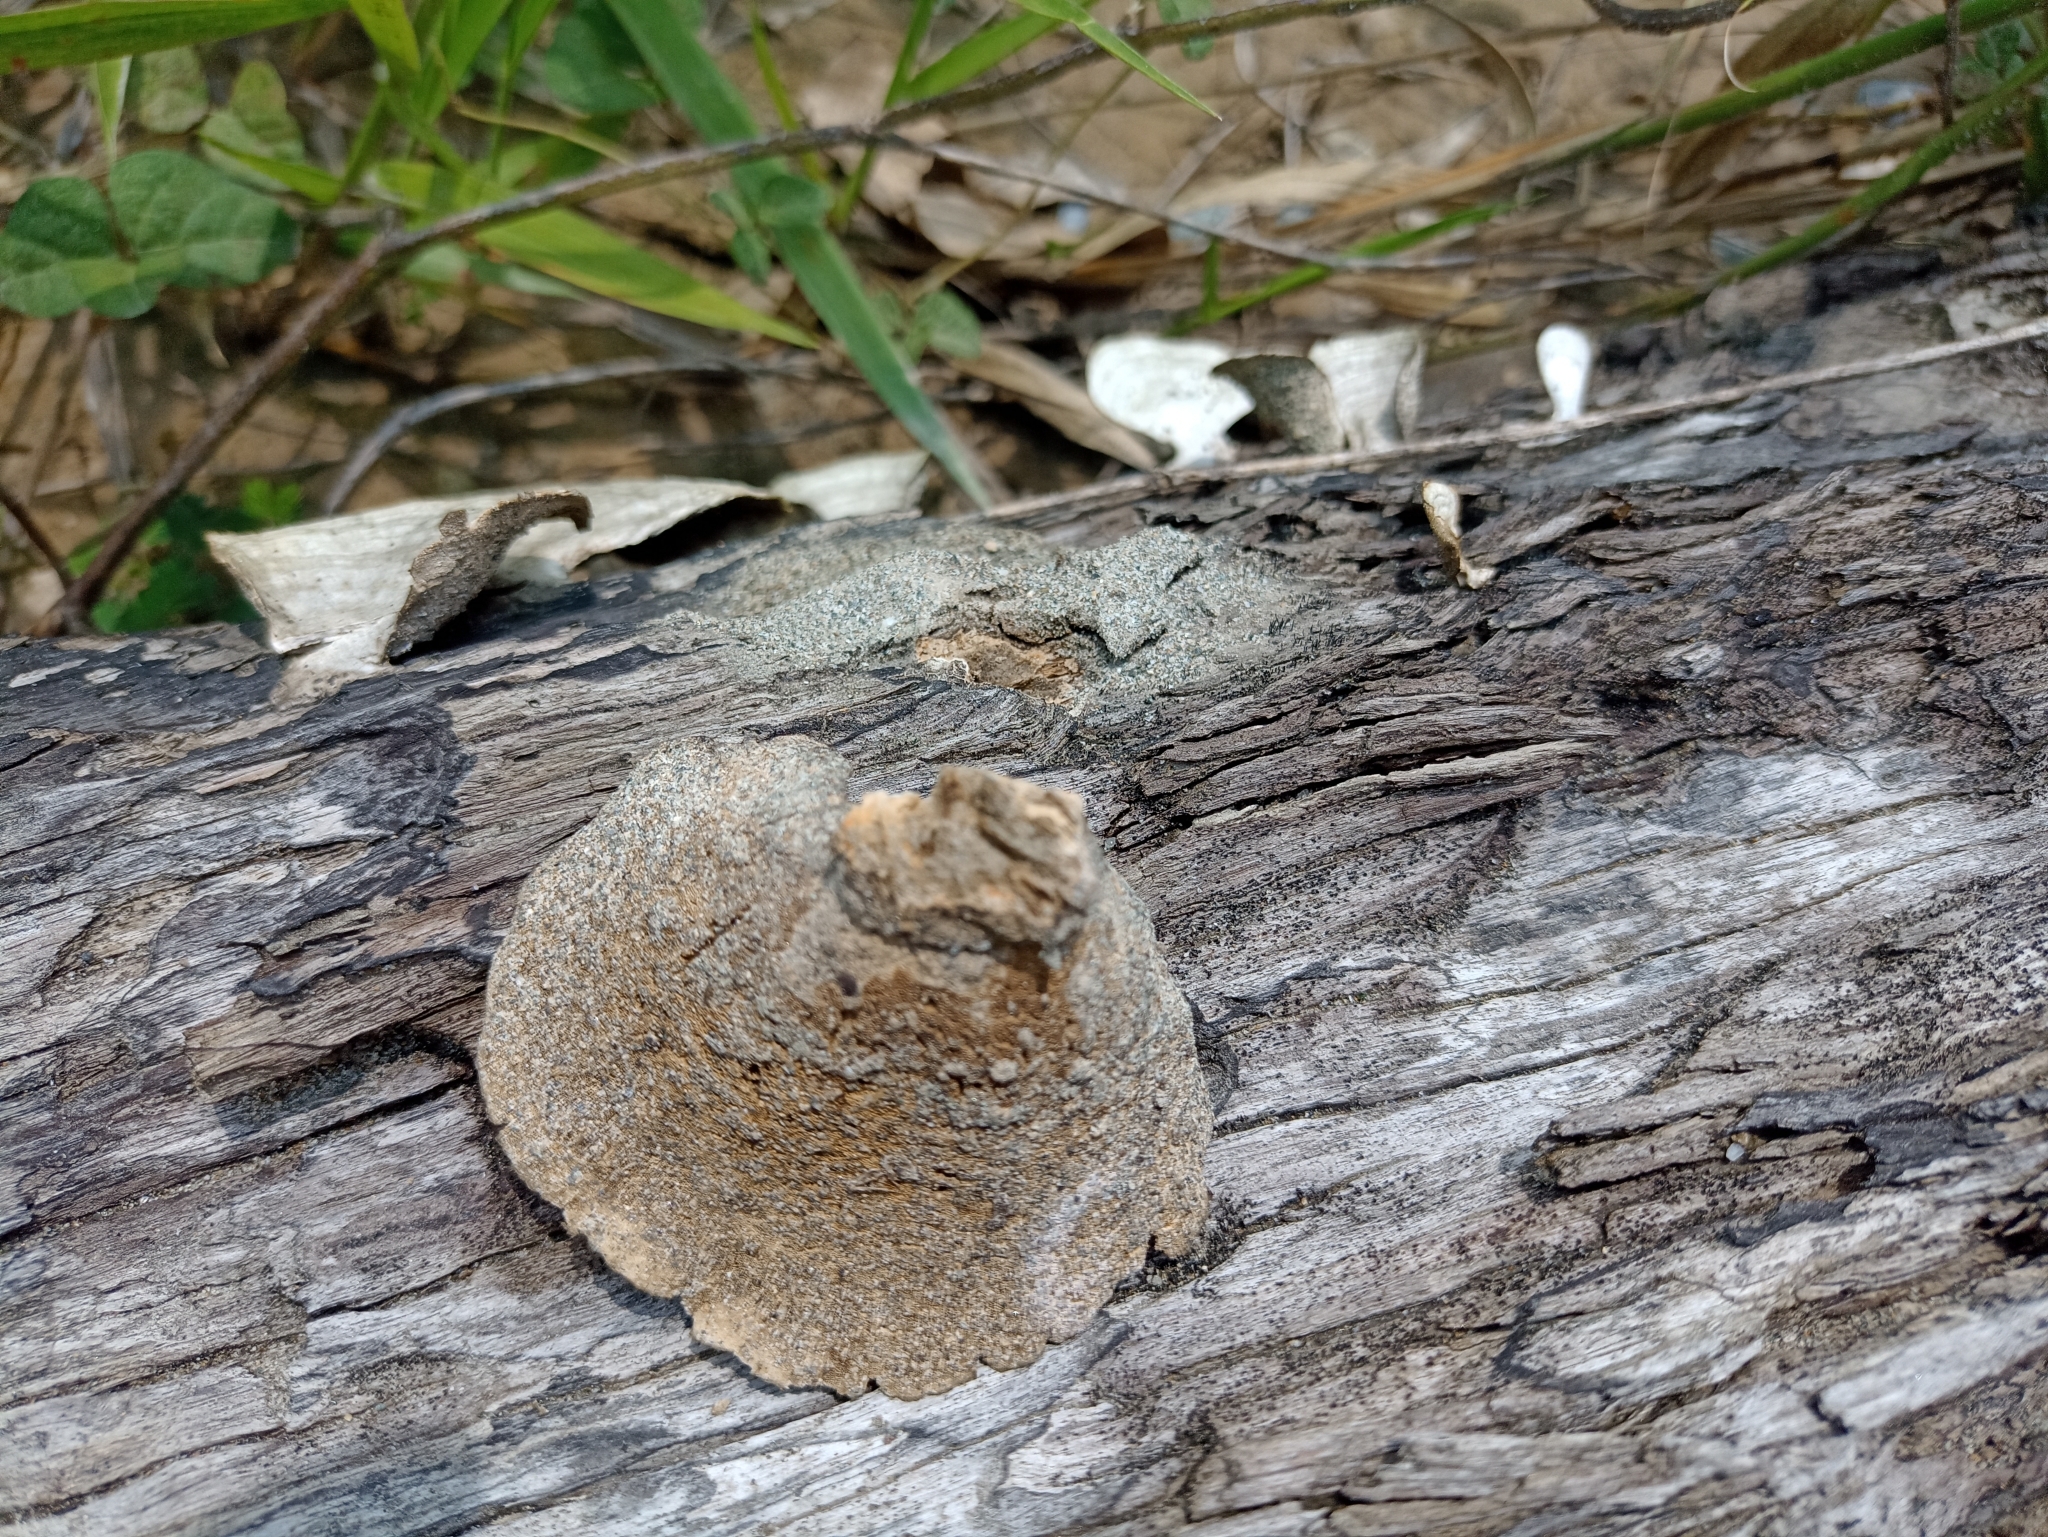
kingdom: Fungi
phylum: Basidiomycota
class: Agaricomycetes
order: Polyporales
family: Polyporaceae
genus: Trametes
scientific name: Trametes hirsuta
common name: Hairy bracket
